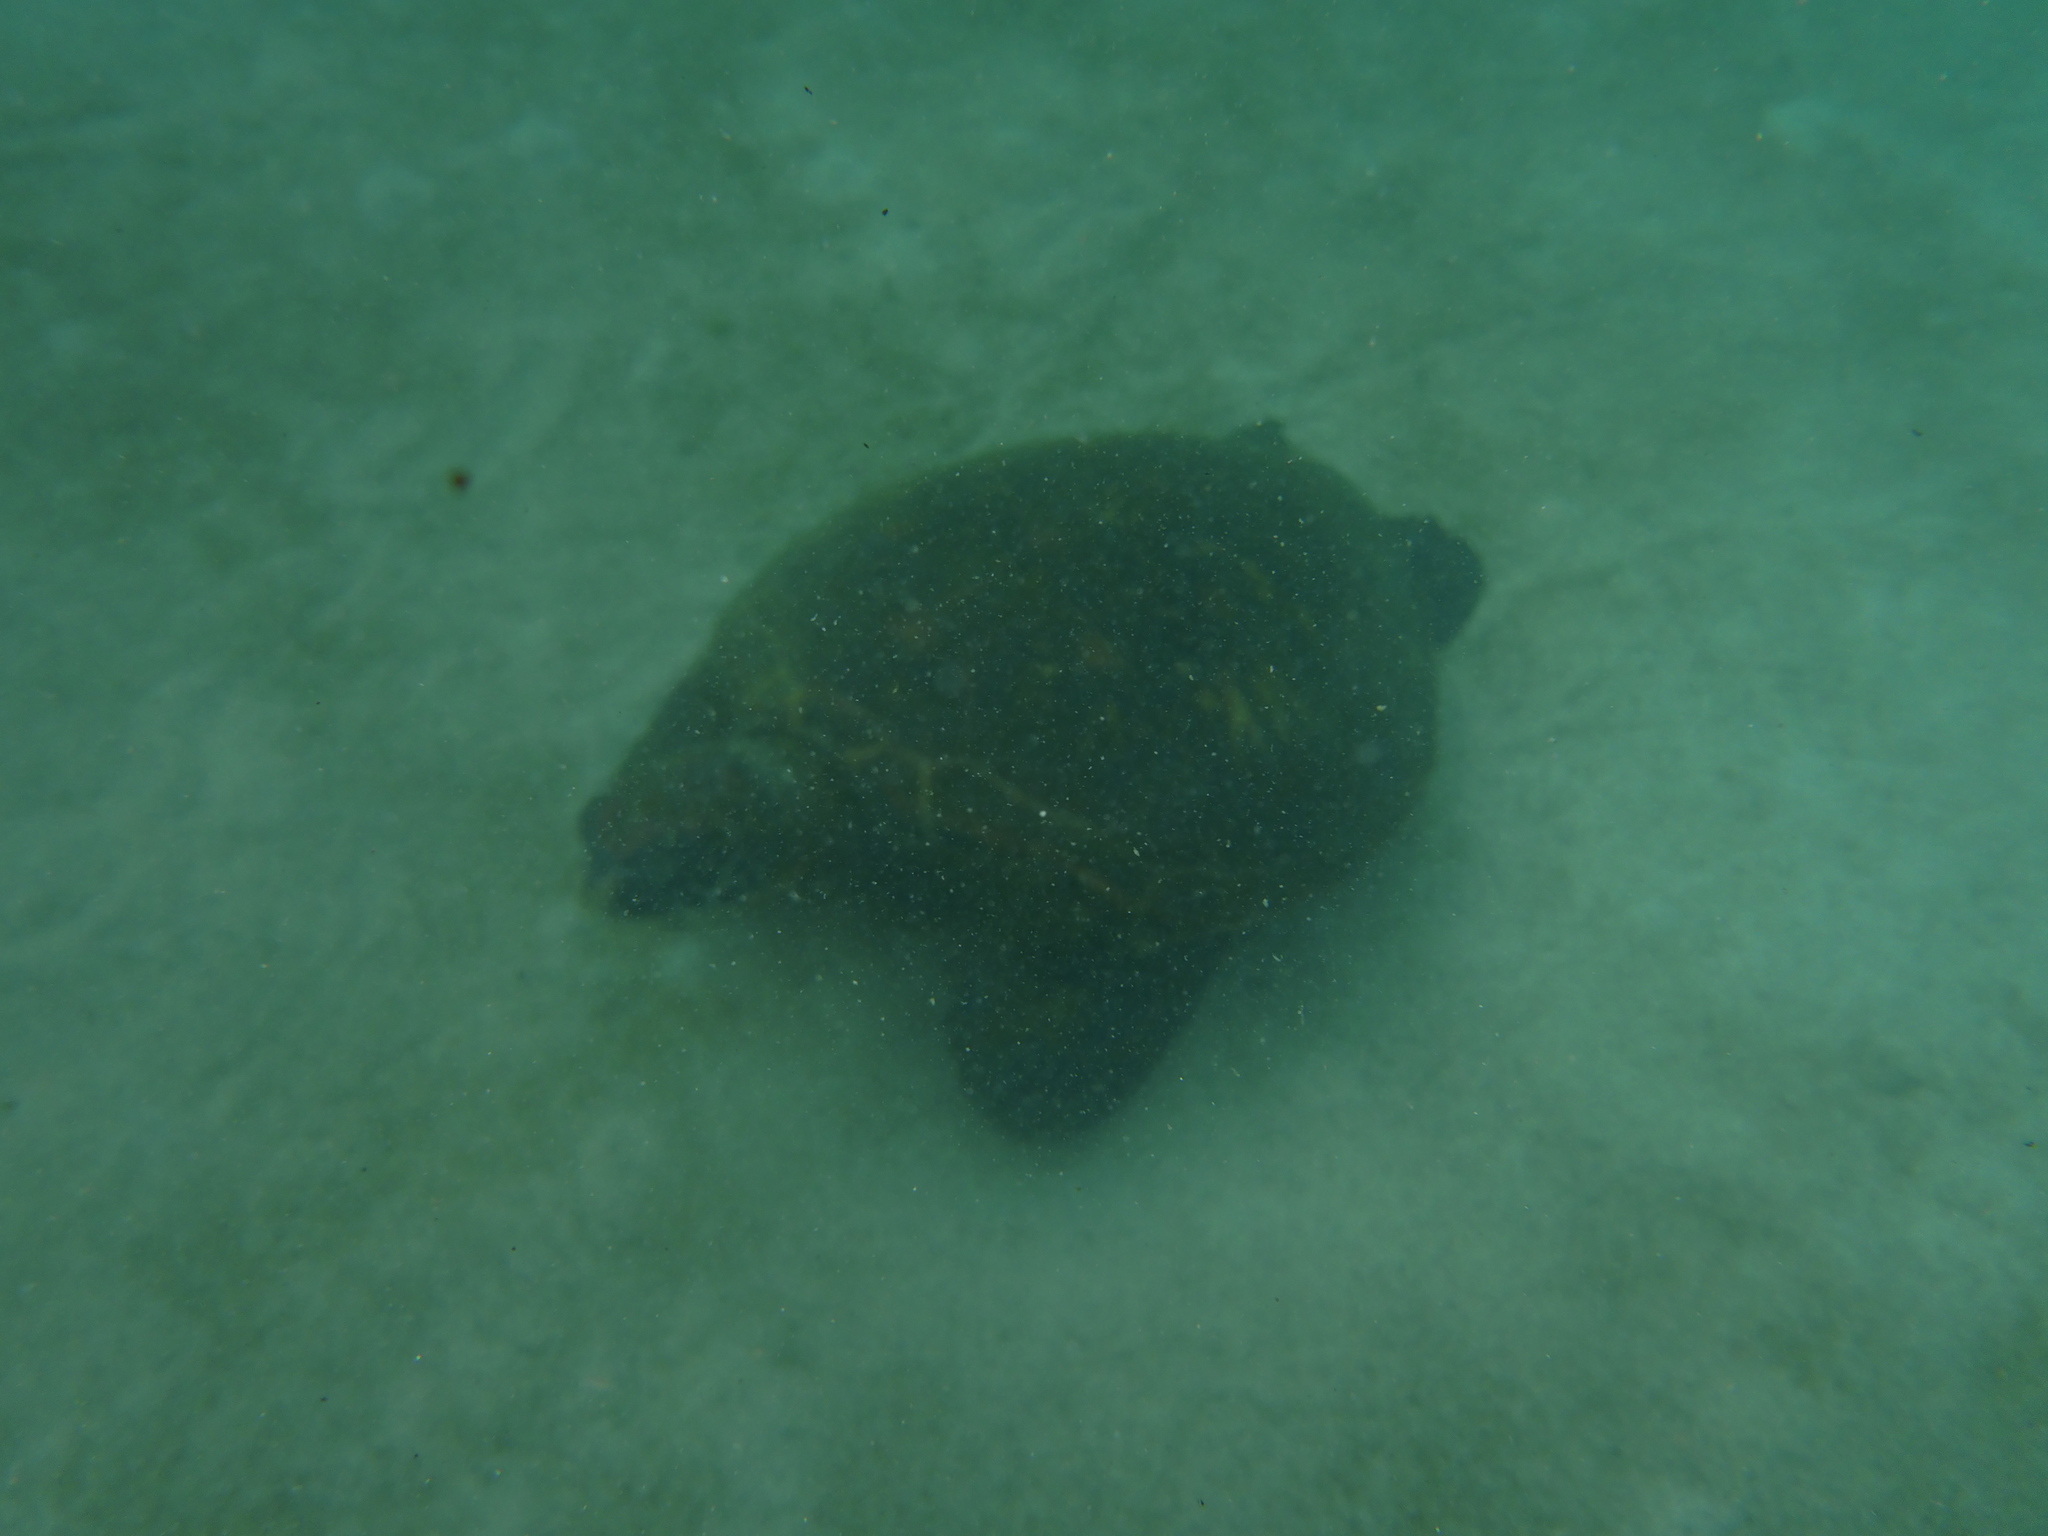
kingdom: Animalia
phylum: Chordata
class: Testudines
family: Cheloniidae
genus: Chelonia
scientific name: Chelonia mydas
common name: Green turtle
